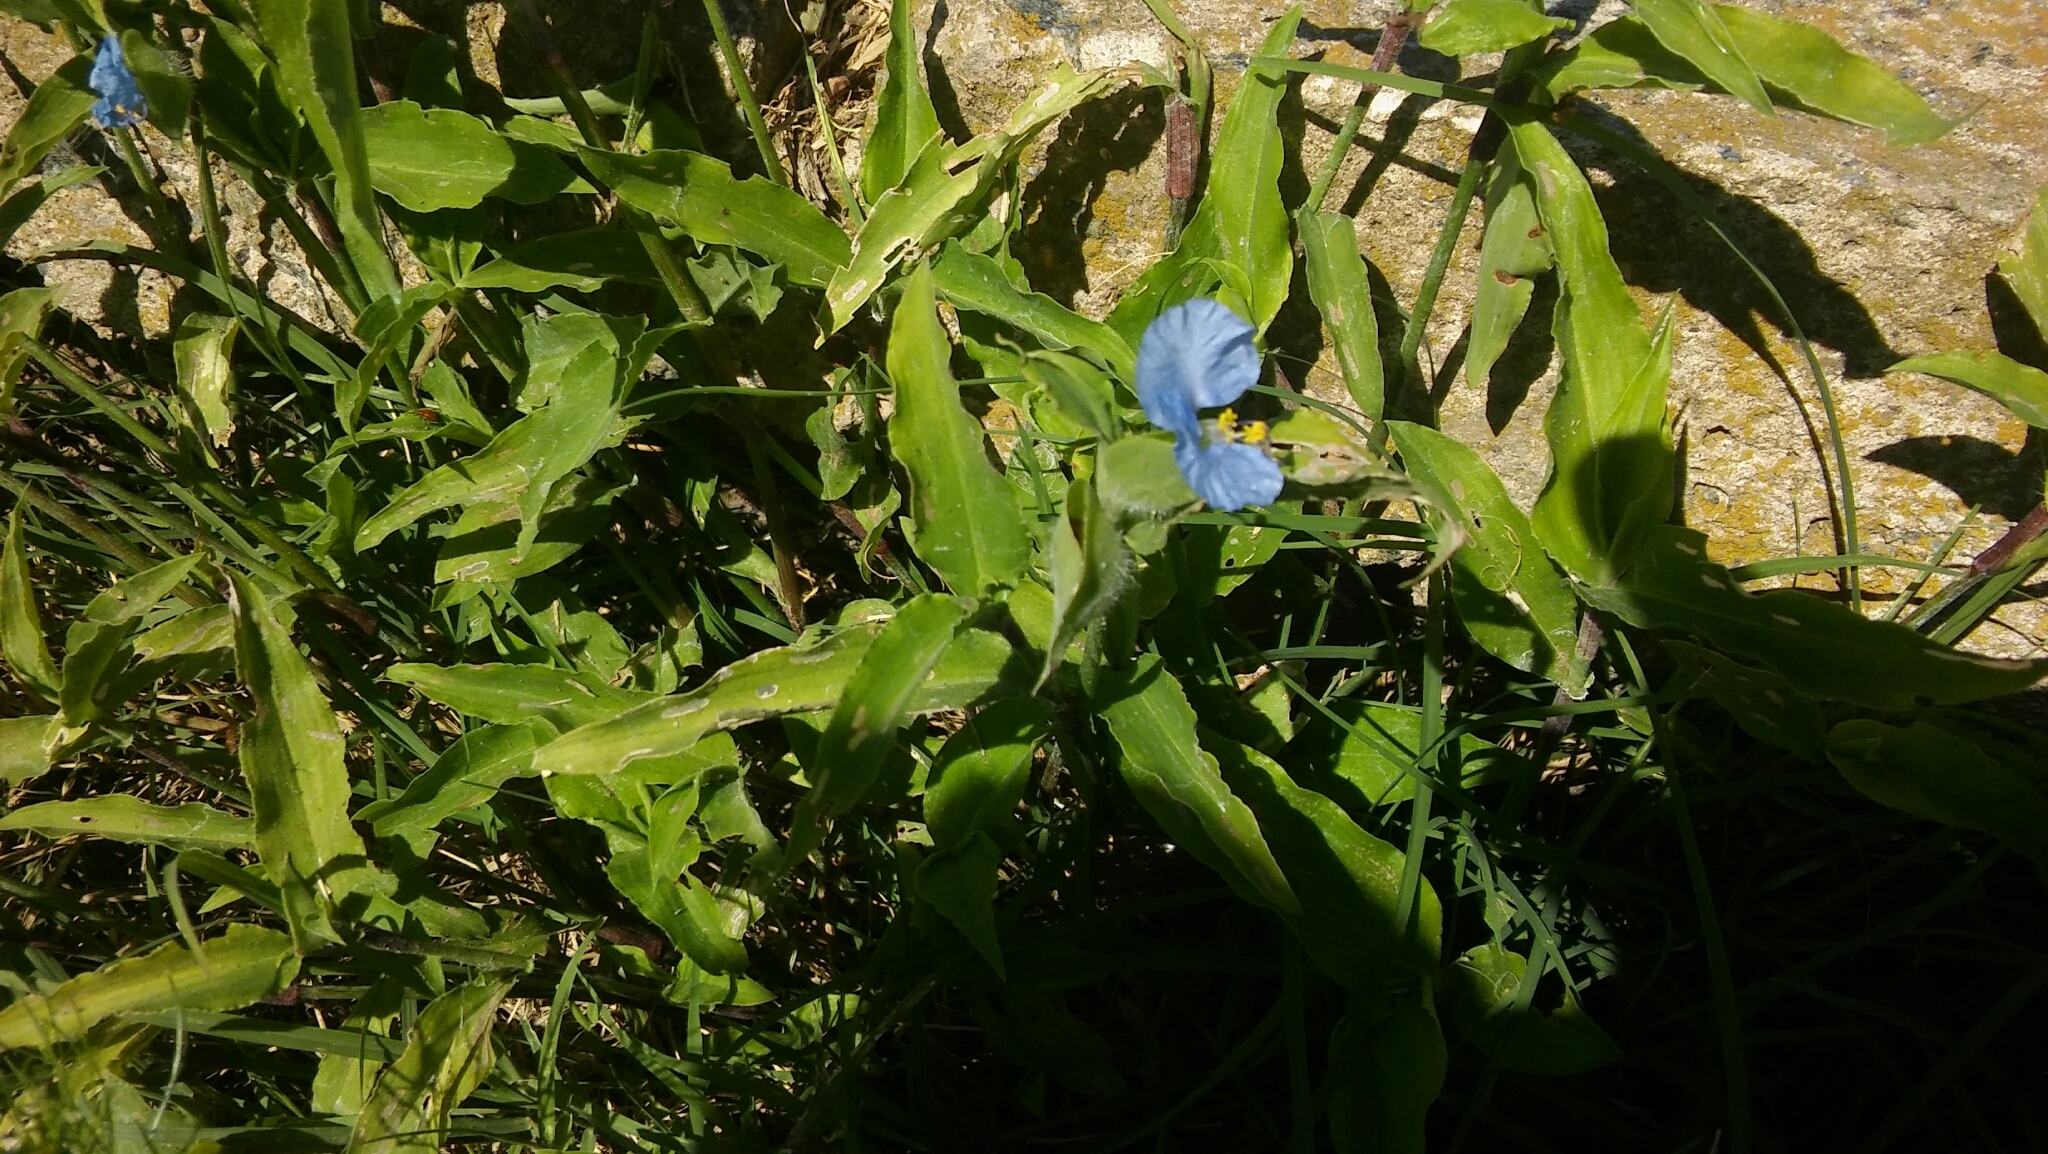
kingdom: Plantae
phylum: Tracheophyta
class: Liliopsida
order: Commelinales
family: Commelinaceae
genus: Commelina
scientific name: Commelina erecta
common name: Blousel blommetjie
